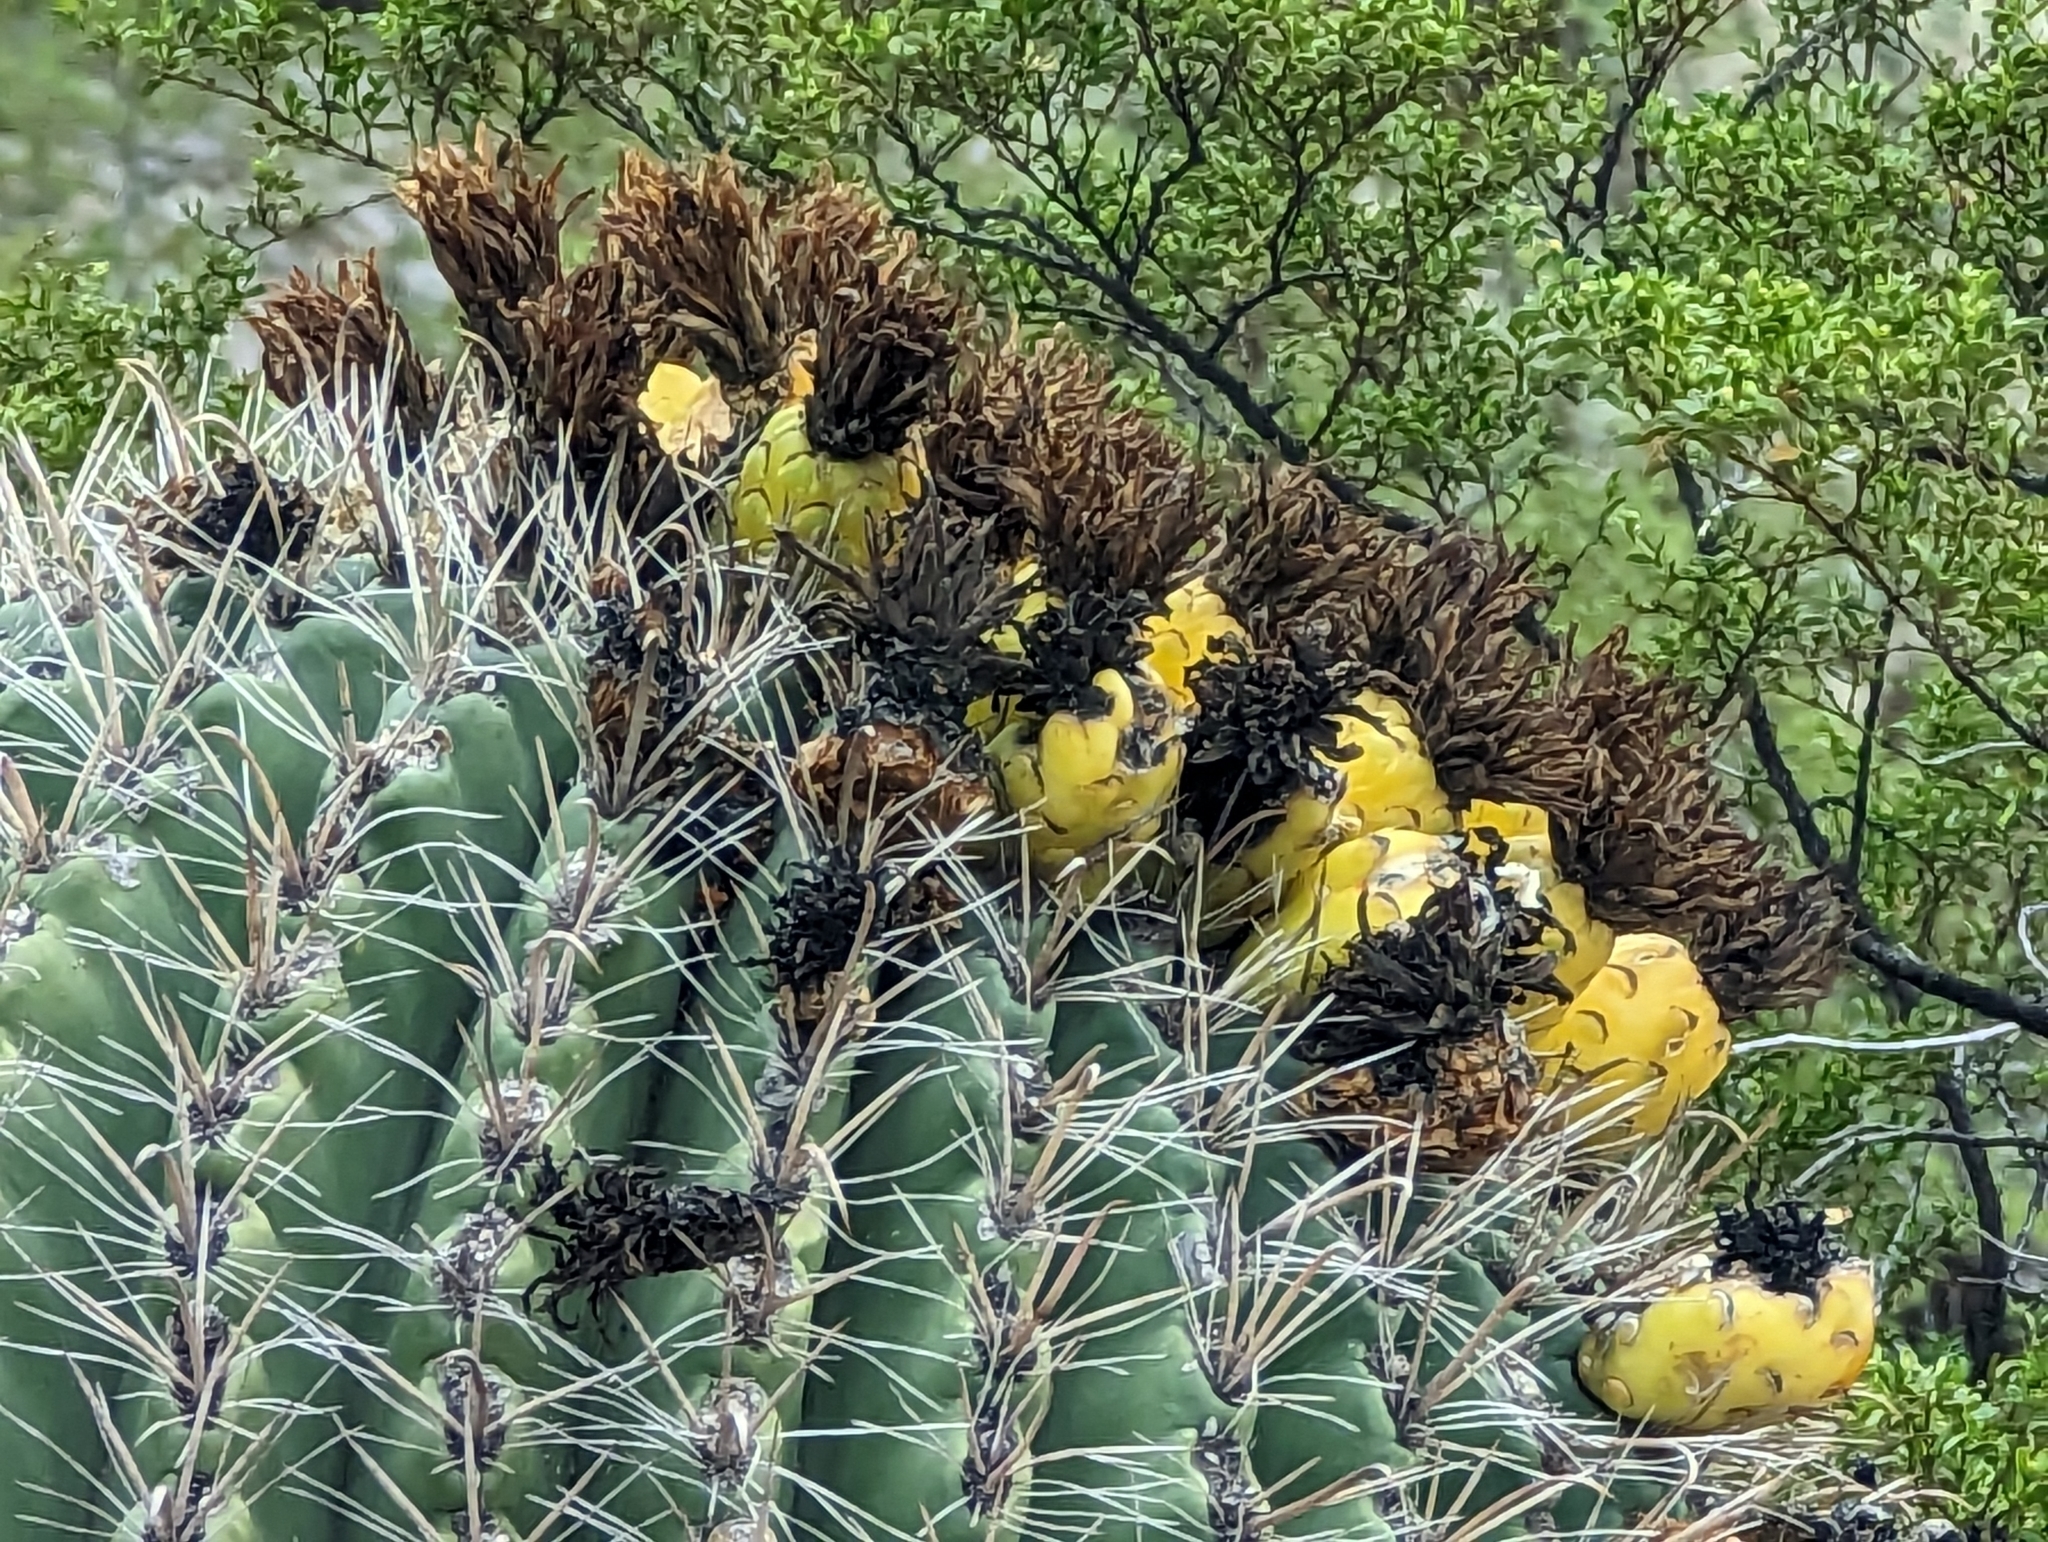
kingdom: Plantae
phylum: Tracheophyta
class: Magnoliopsida
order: Caryophyllales
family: Cactaceae
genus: Ferocactus
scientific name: Ferocactus wislizeni
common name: Candy barrel cactus
